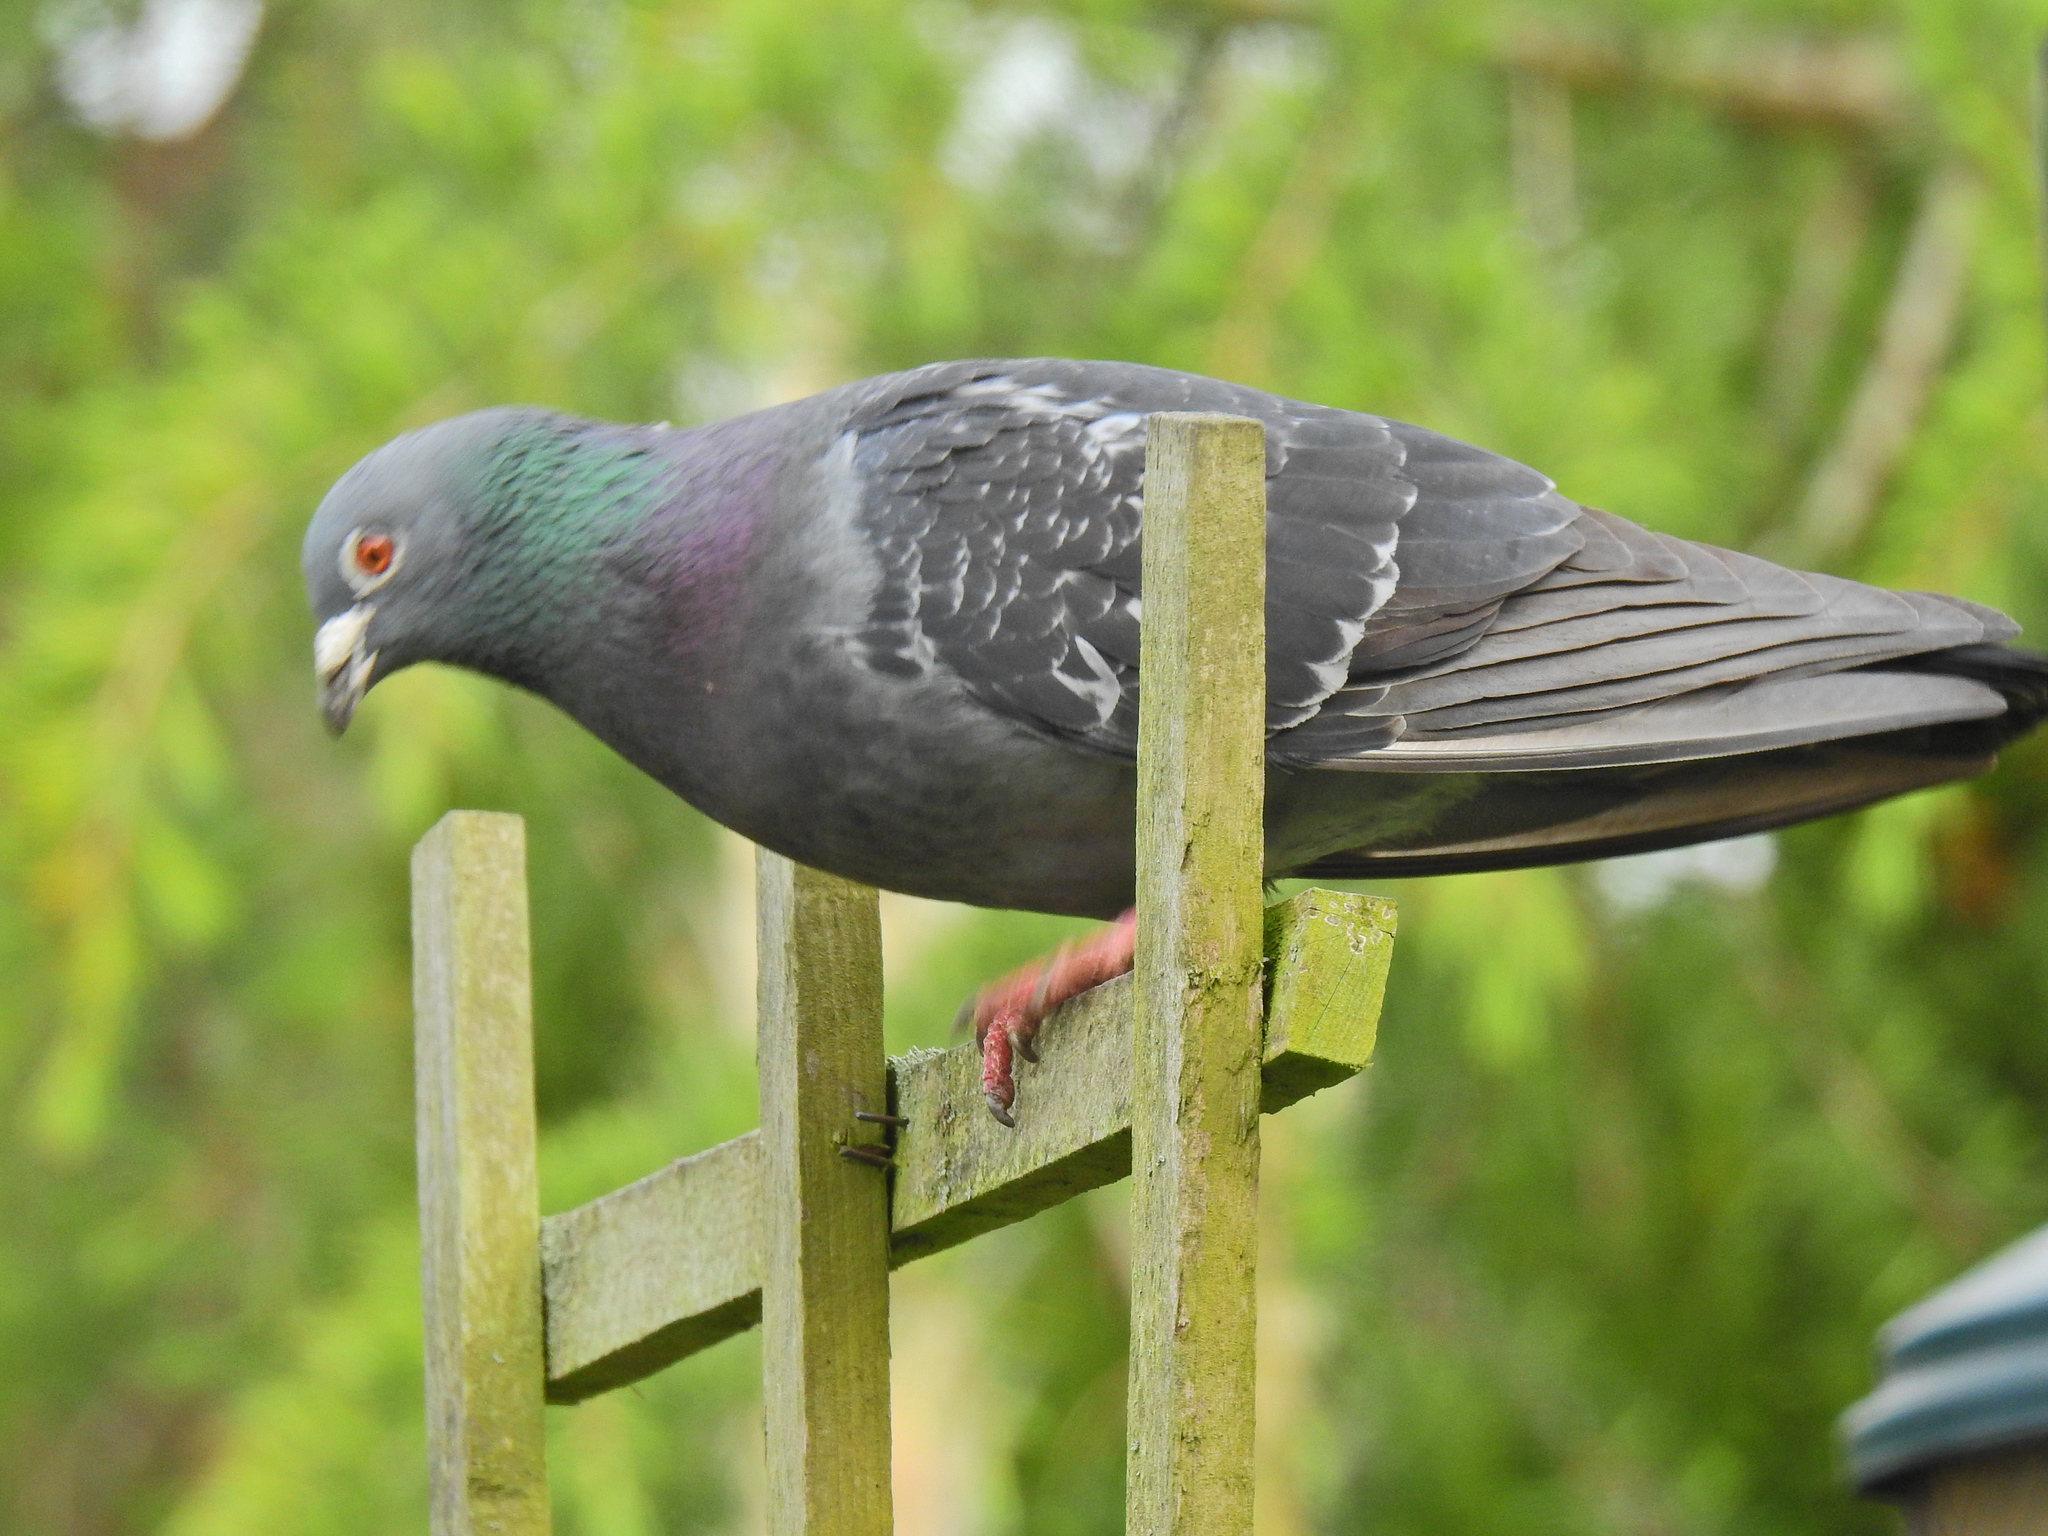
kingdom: Animalia
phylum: Chordata
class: Aves
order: Columbiformes
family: Columbidae
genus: Columba
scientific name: Columba livia
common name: Rock pigeon
